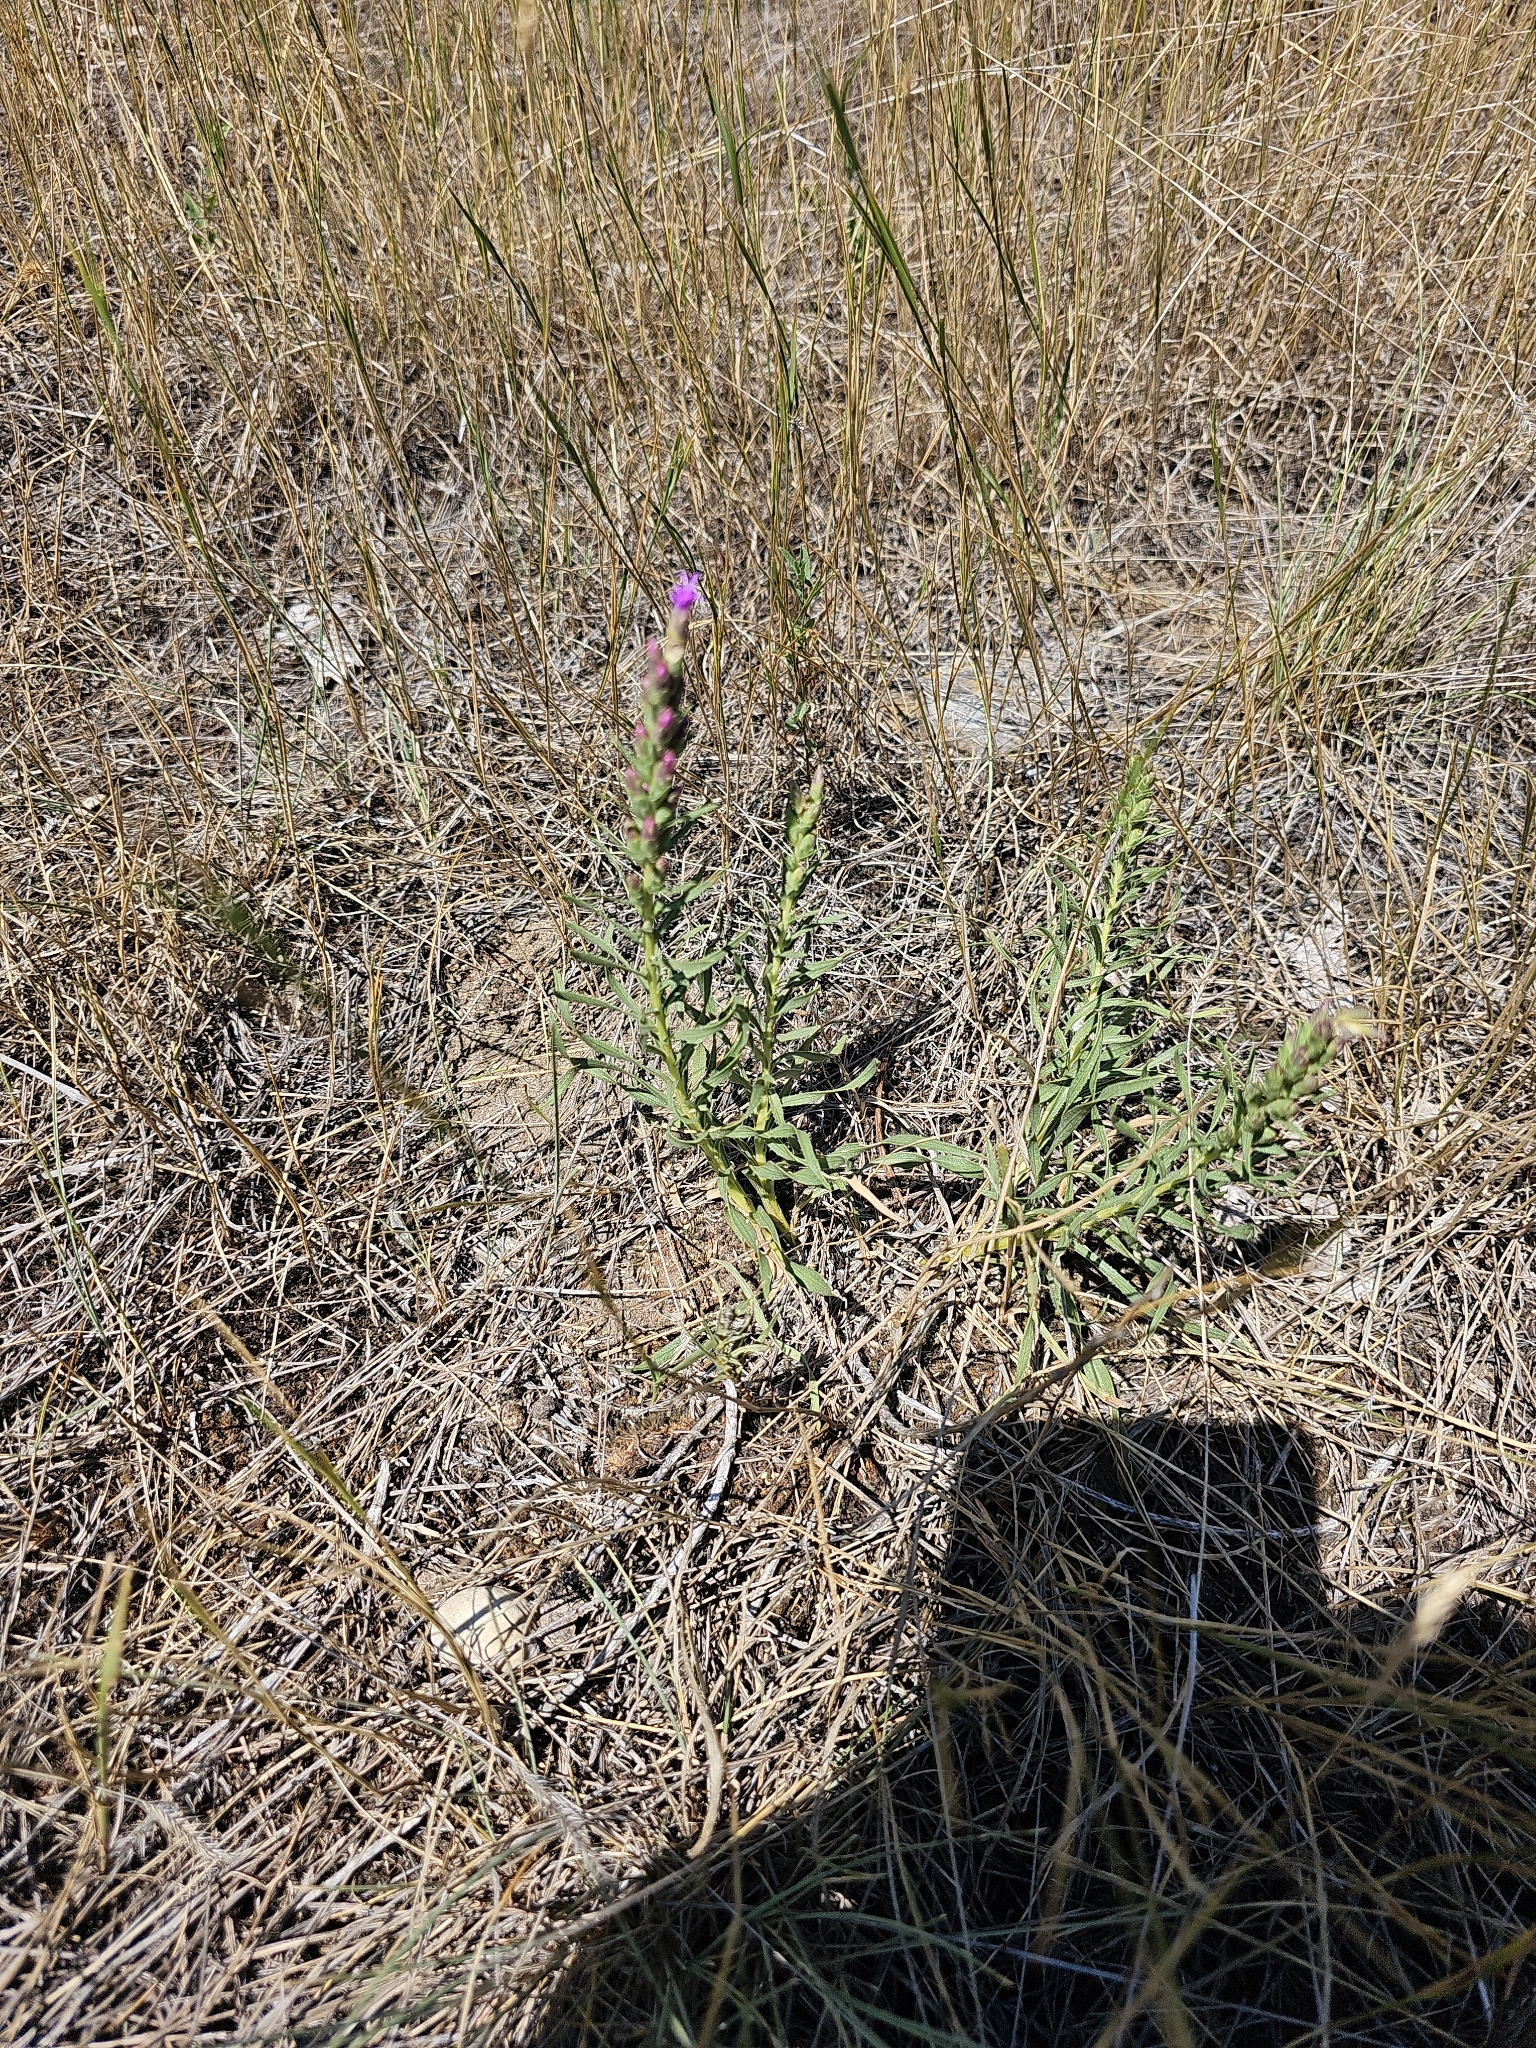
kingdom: Plantae
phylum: Tracheophyta
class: Magnoliopsida
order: Asterales
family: Asteraceae
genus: Liatris
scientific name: Liatris punctata
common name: Dotted gayfeather
